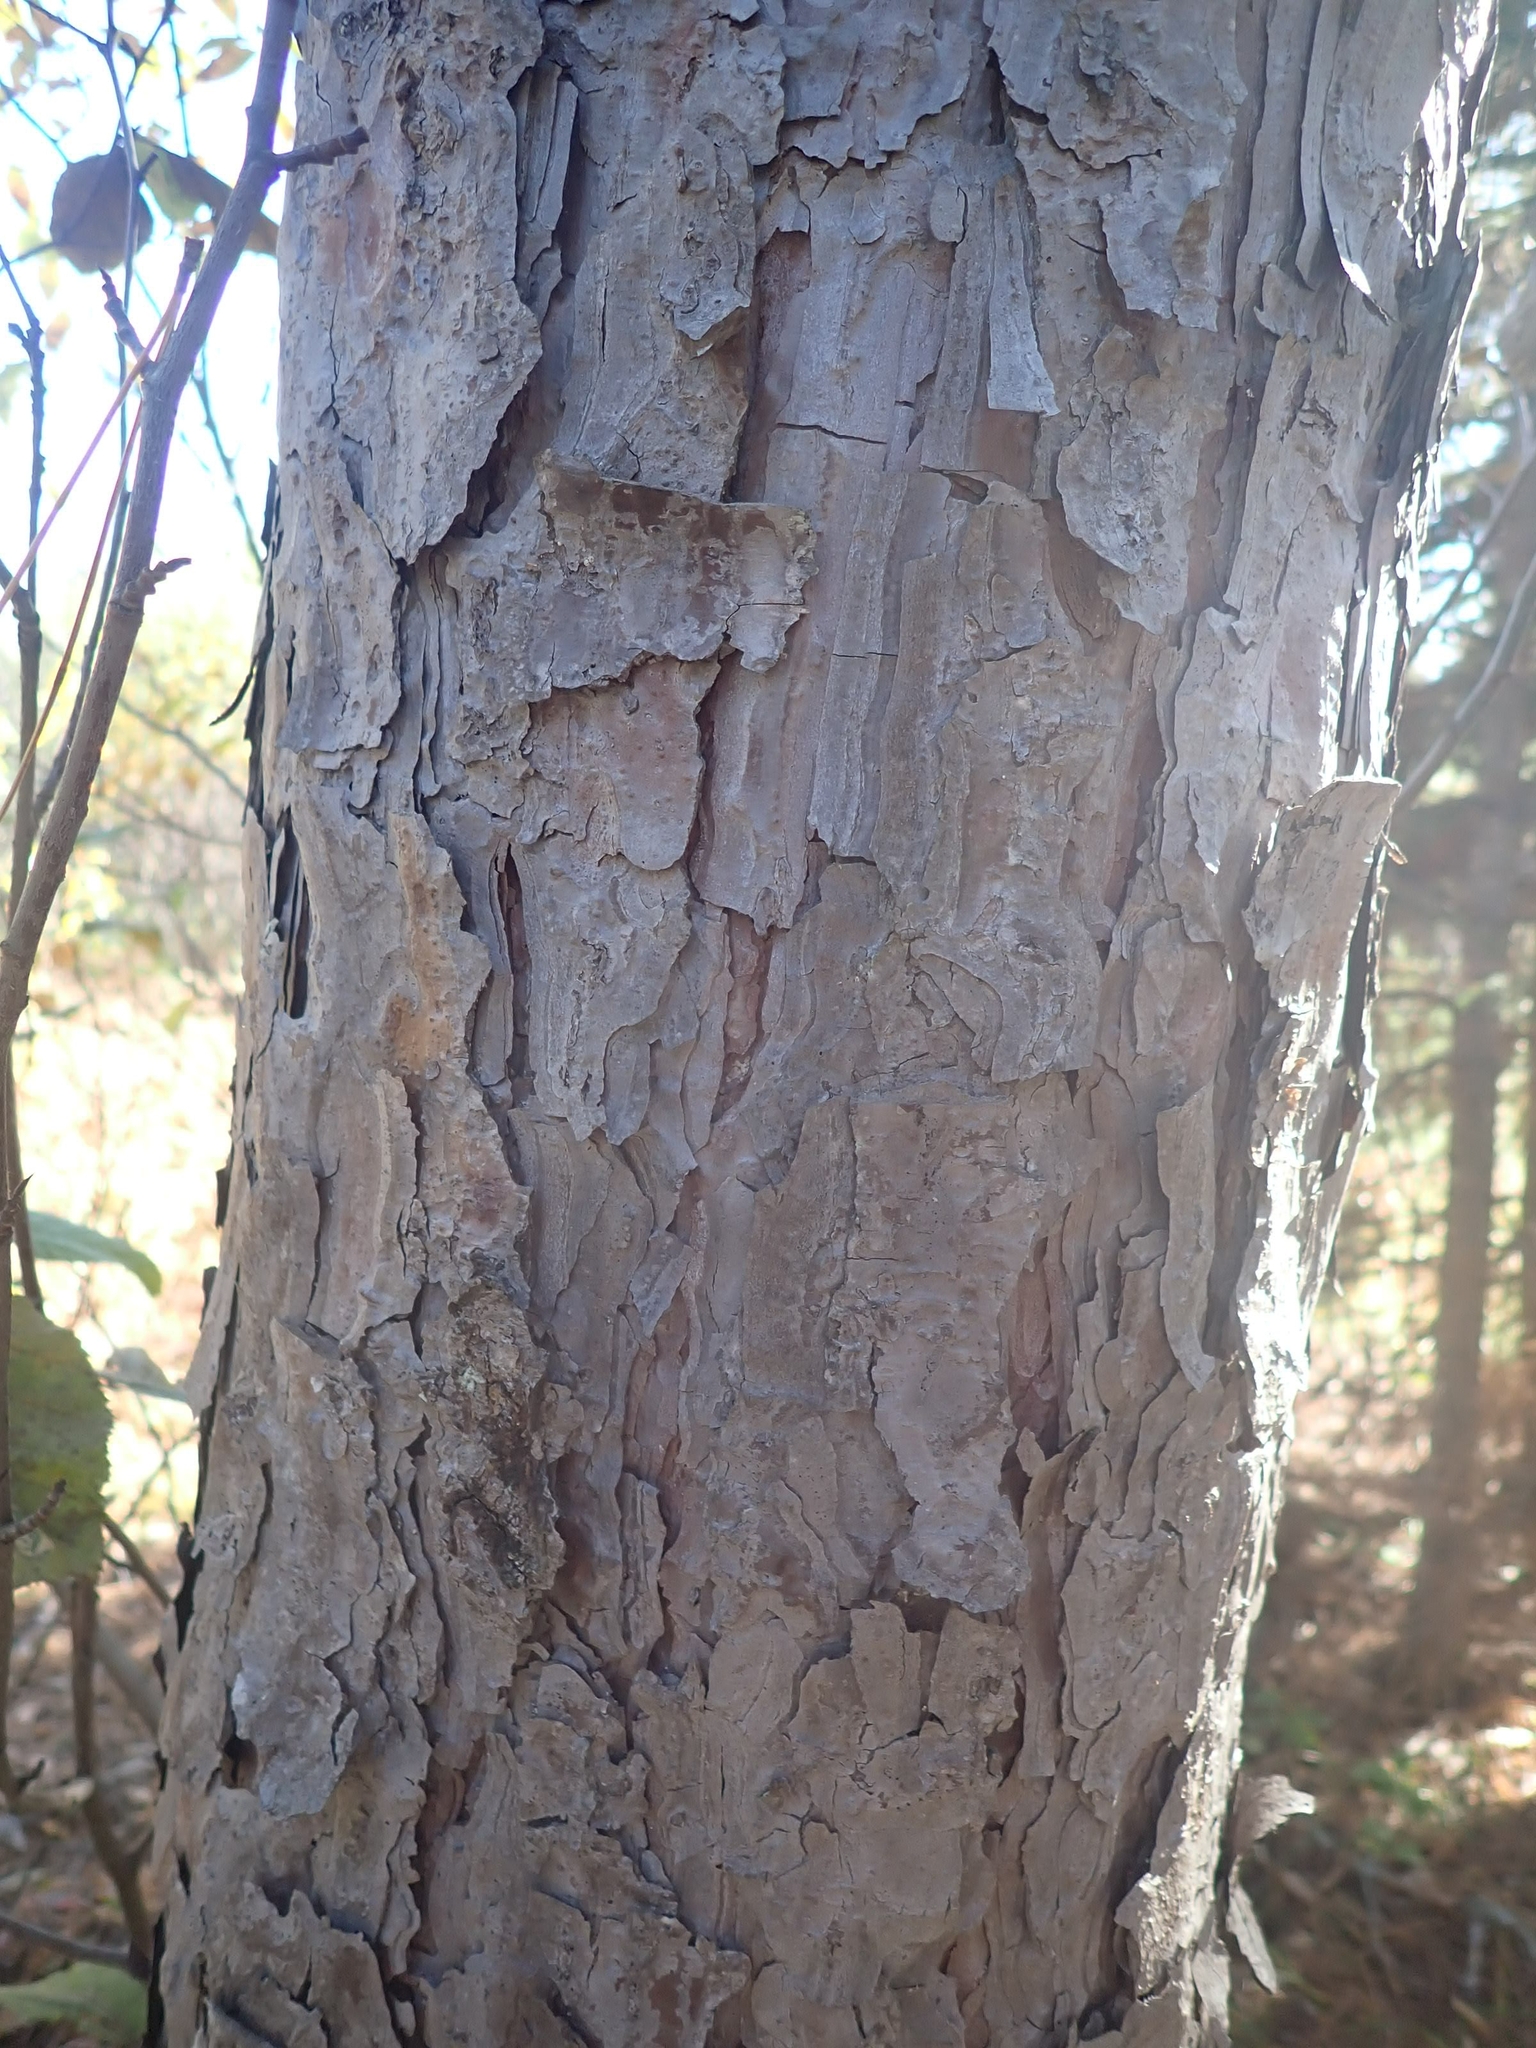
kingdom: Plantae
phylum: Tracheophyta
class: Pinopsida
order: Pinales
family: Pinaceae
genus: Pinus
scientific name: Pinus resinosa
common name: Norway pine
